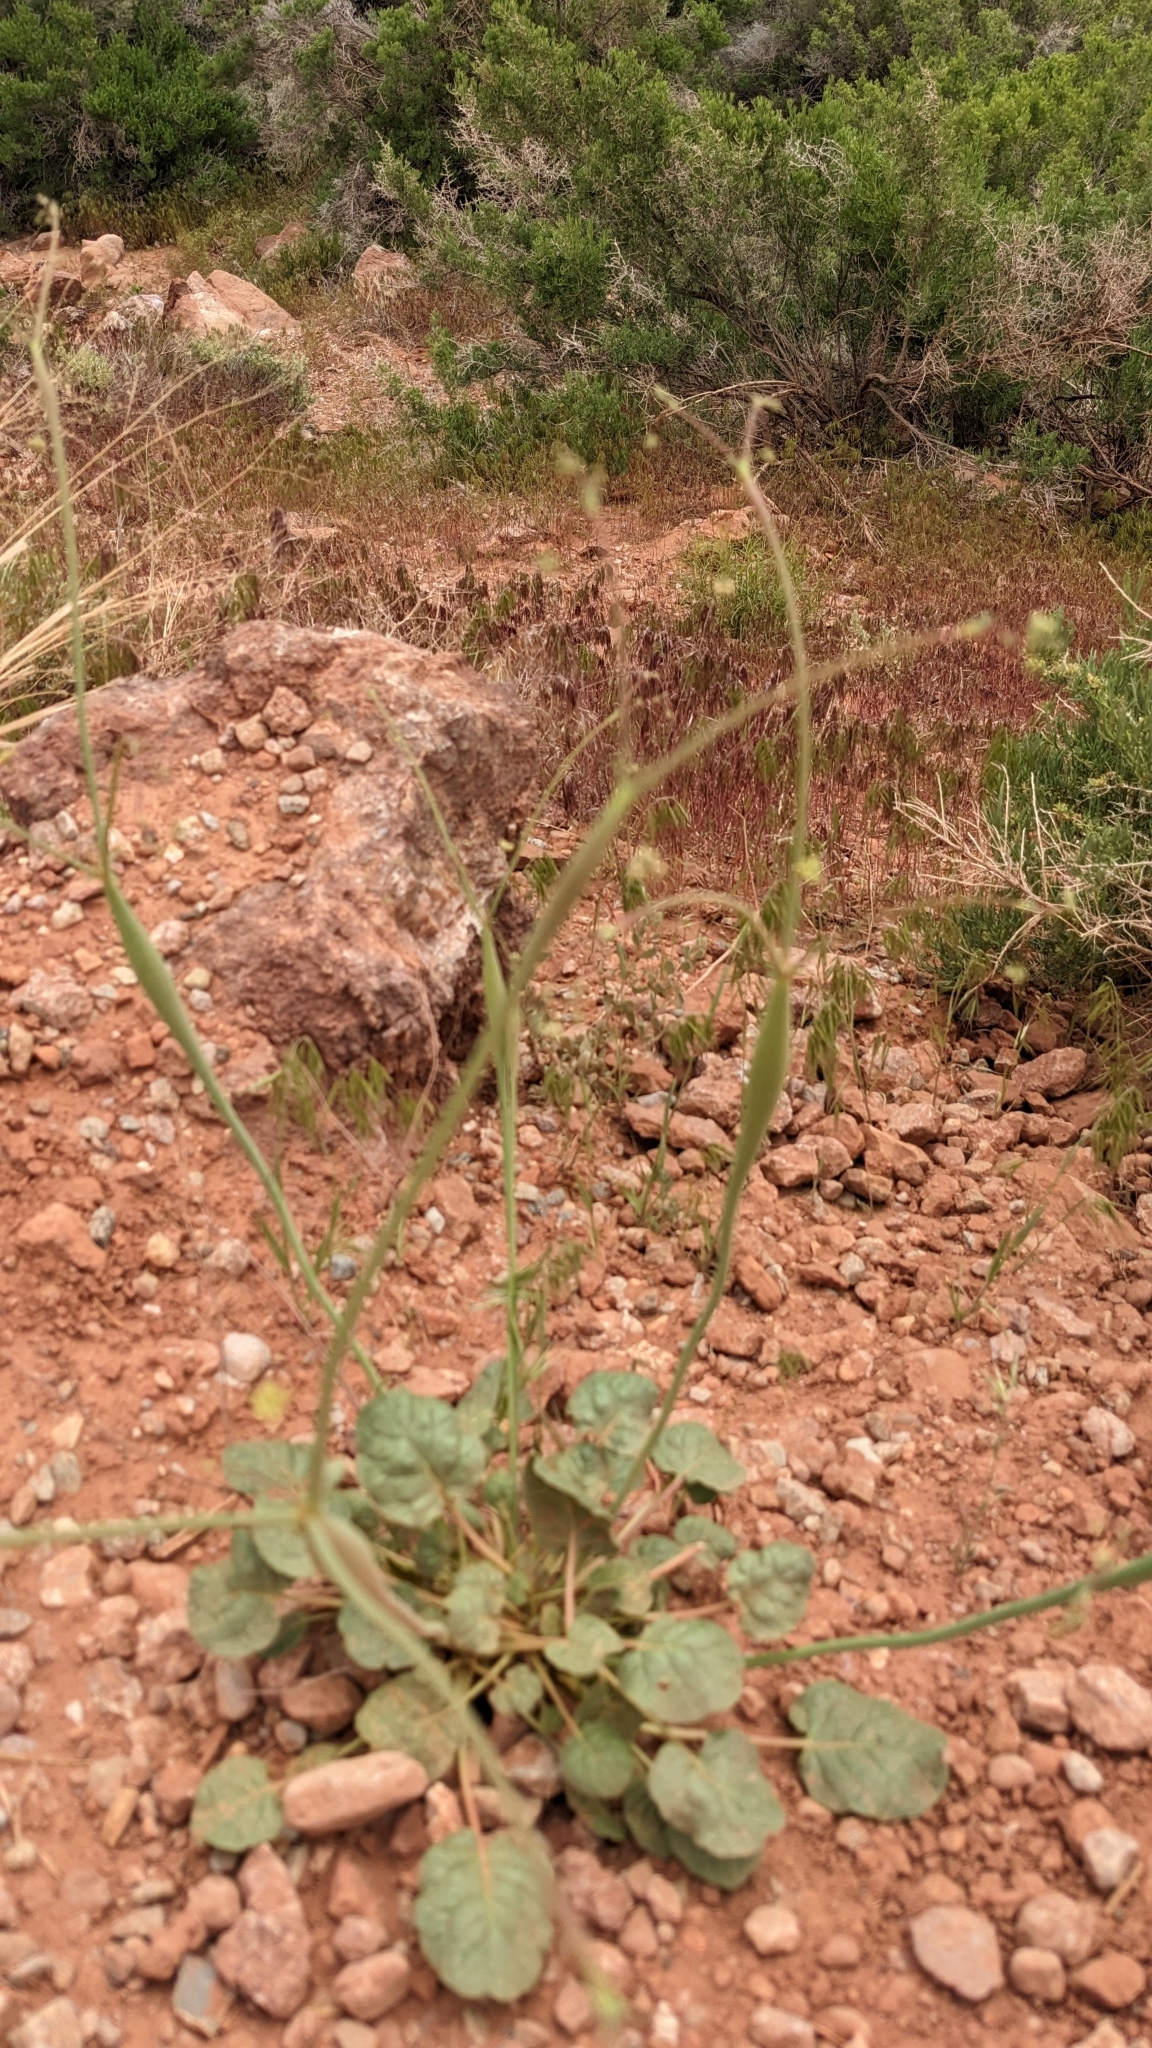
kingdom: Plantae
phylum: Tracheophyta
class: Magnoliopsida
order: Caryophyllales
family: Polygonaceae
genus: Eriogonum
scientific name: Eriogonum inflatum
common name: Desert trumpet
